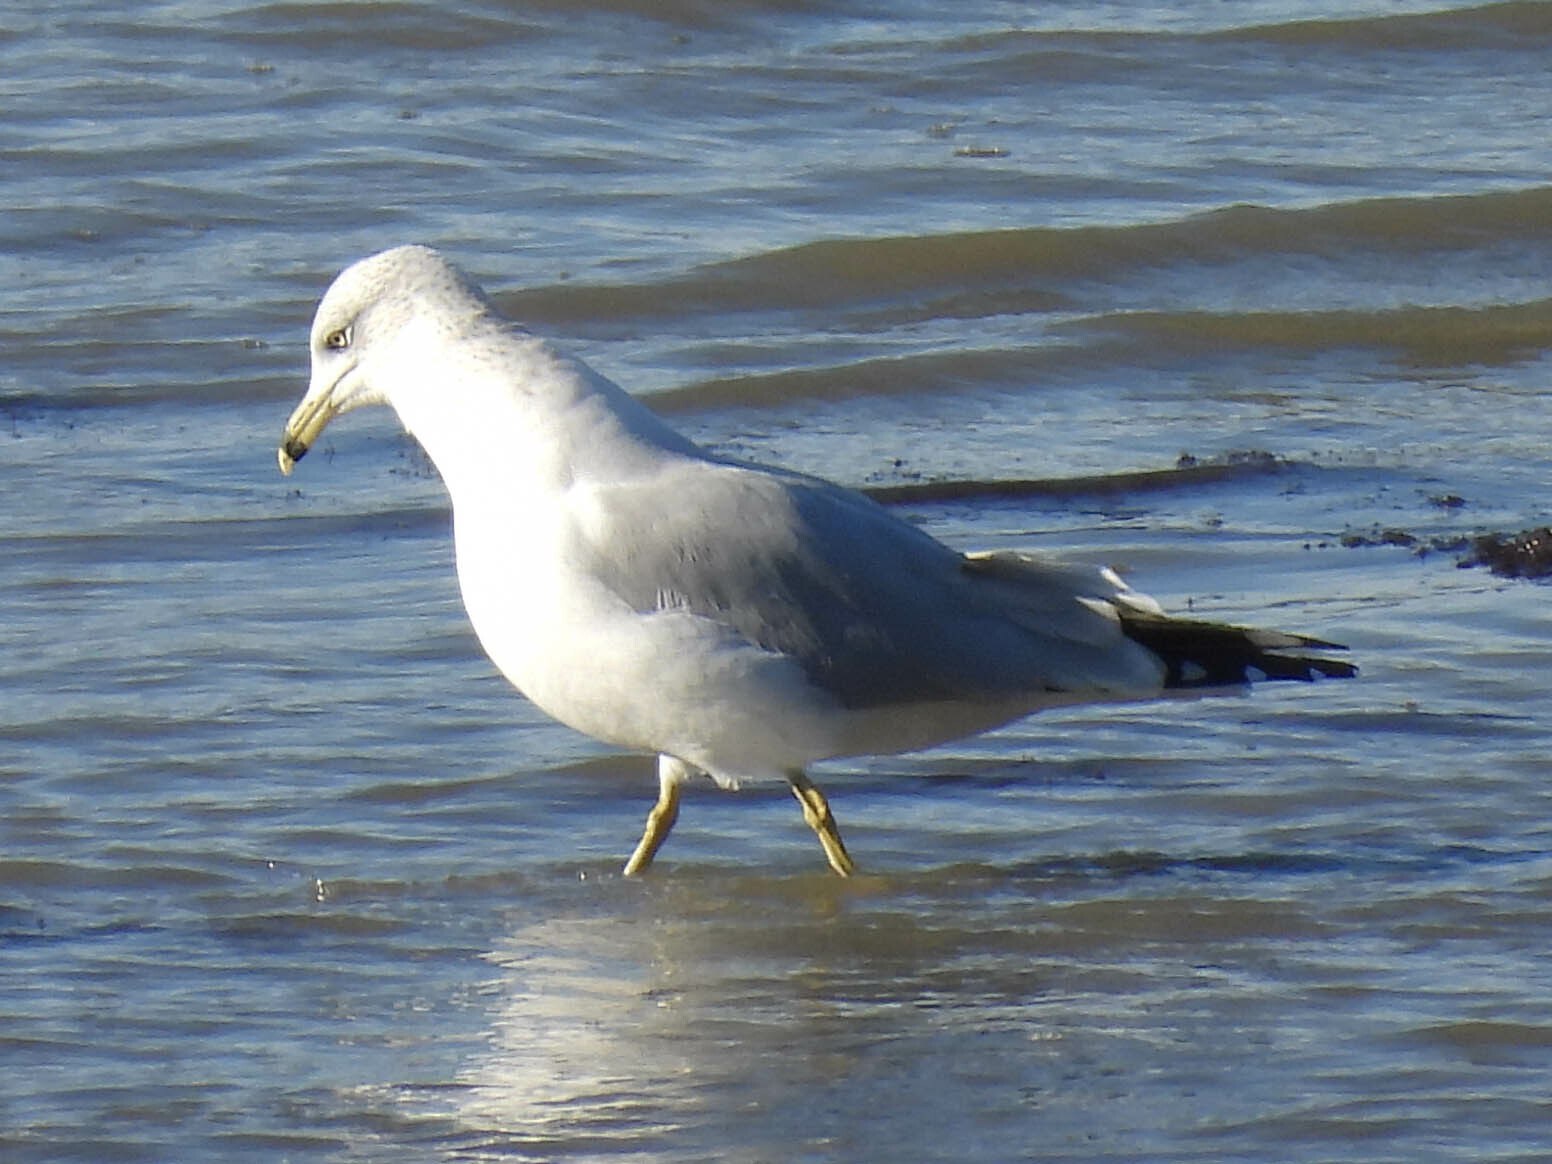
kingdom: Animalia
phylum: Chordata
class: Aves
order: Charadriiformes
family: Laridae
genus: Larus
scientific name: Larus delawarensis
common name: Ring-billed gull
